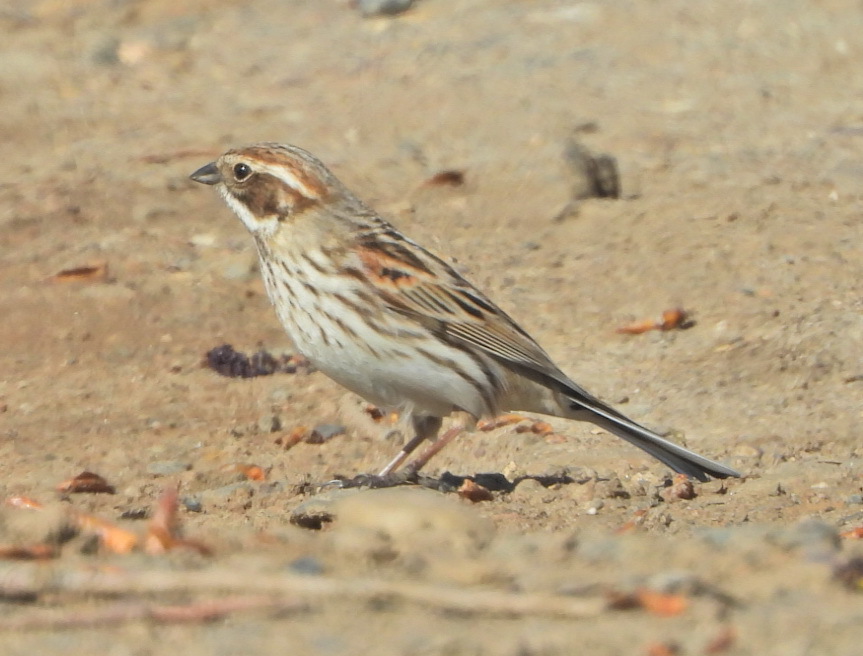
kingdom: Animalia
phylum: Chordata
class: Aves
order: Passeriformes
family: Emberizidae
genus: Emberiza
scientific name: Emberiza schoeniclus
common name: Reed bunting
